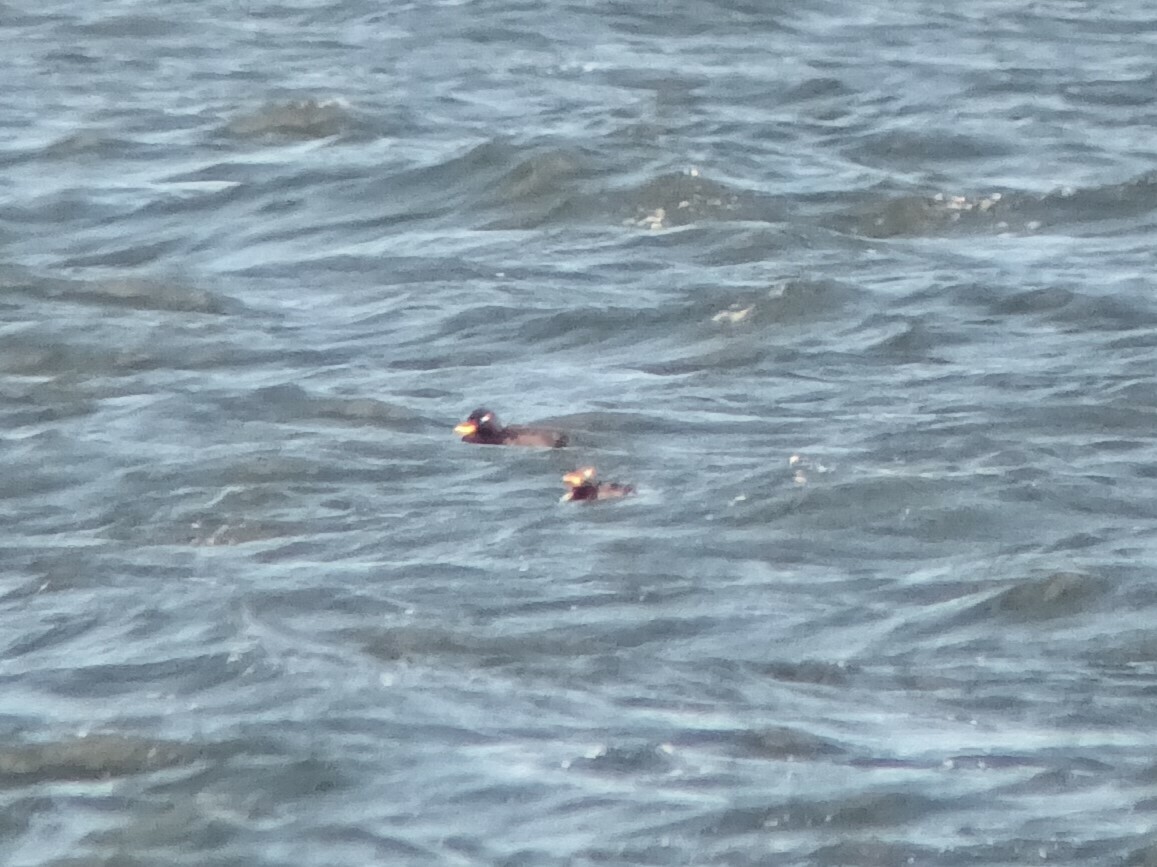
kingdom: Animalia
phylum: Chordata
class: Aves
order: Anseriformes
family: Anatidae
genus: Melanitta
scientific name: Melanitta fusca
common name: Velvet scoter
